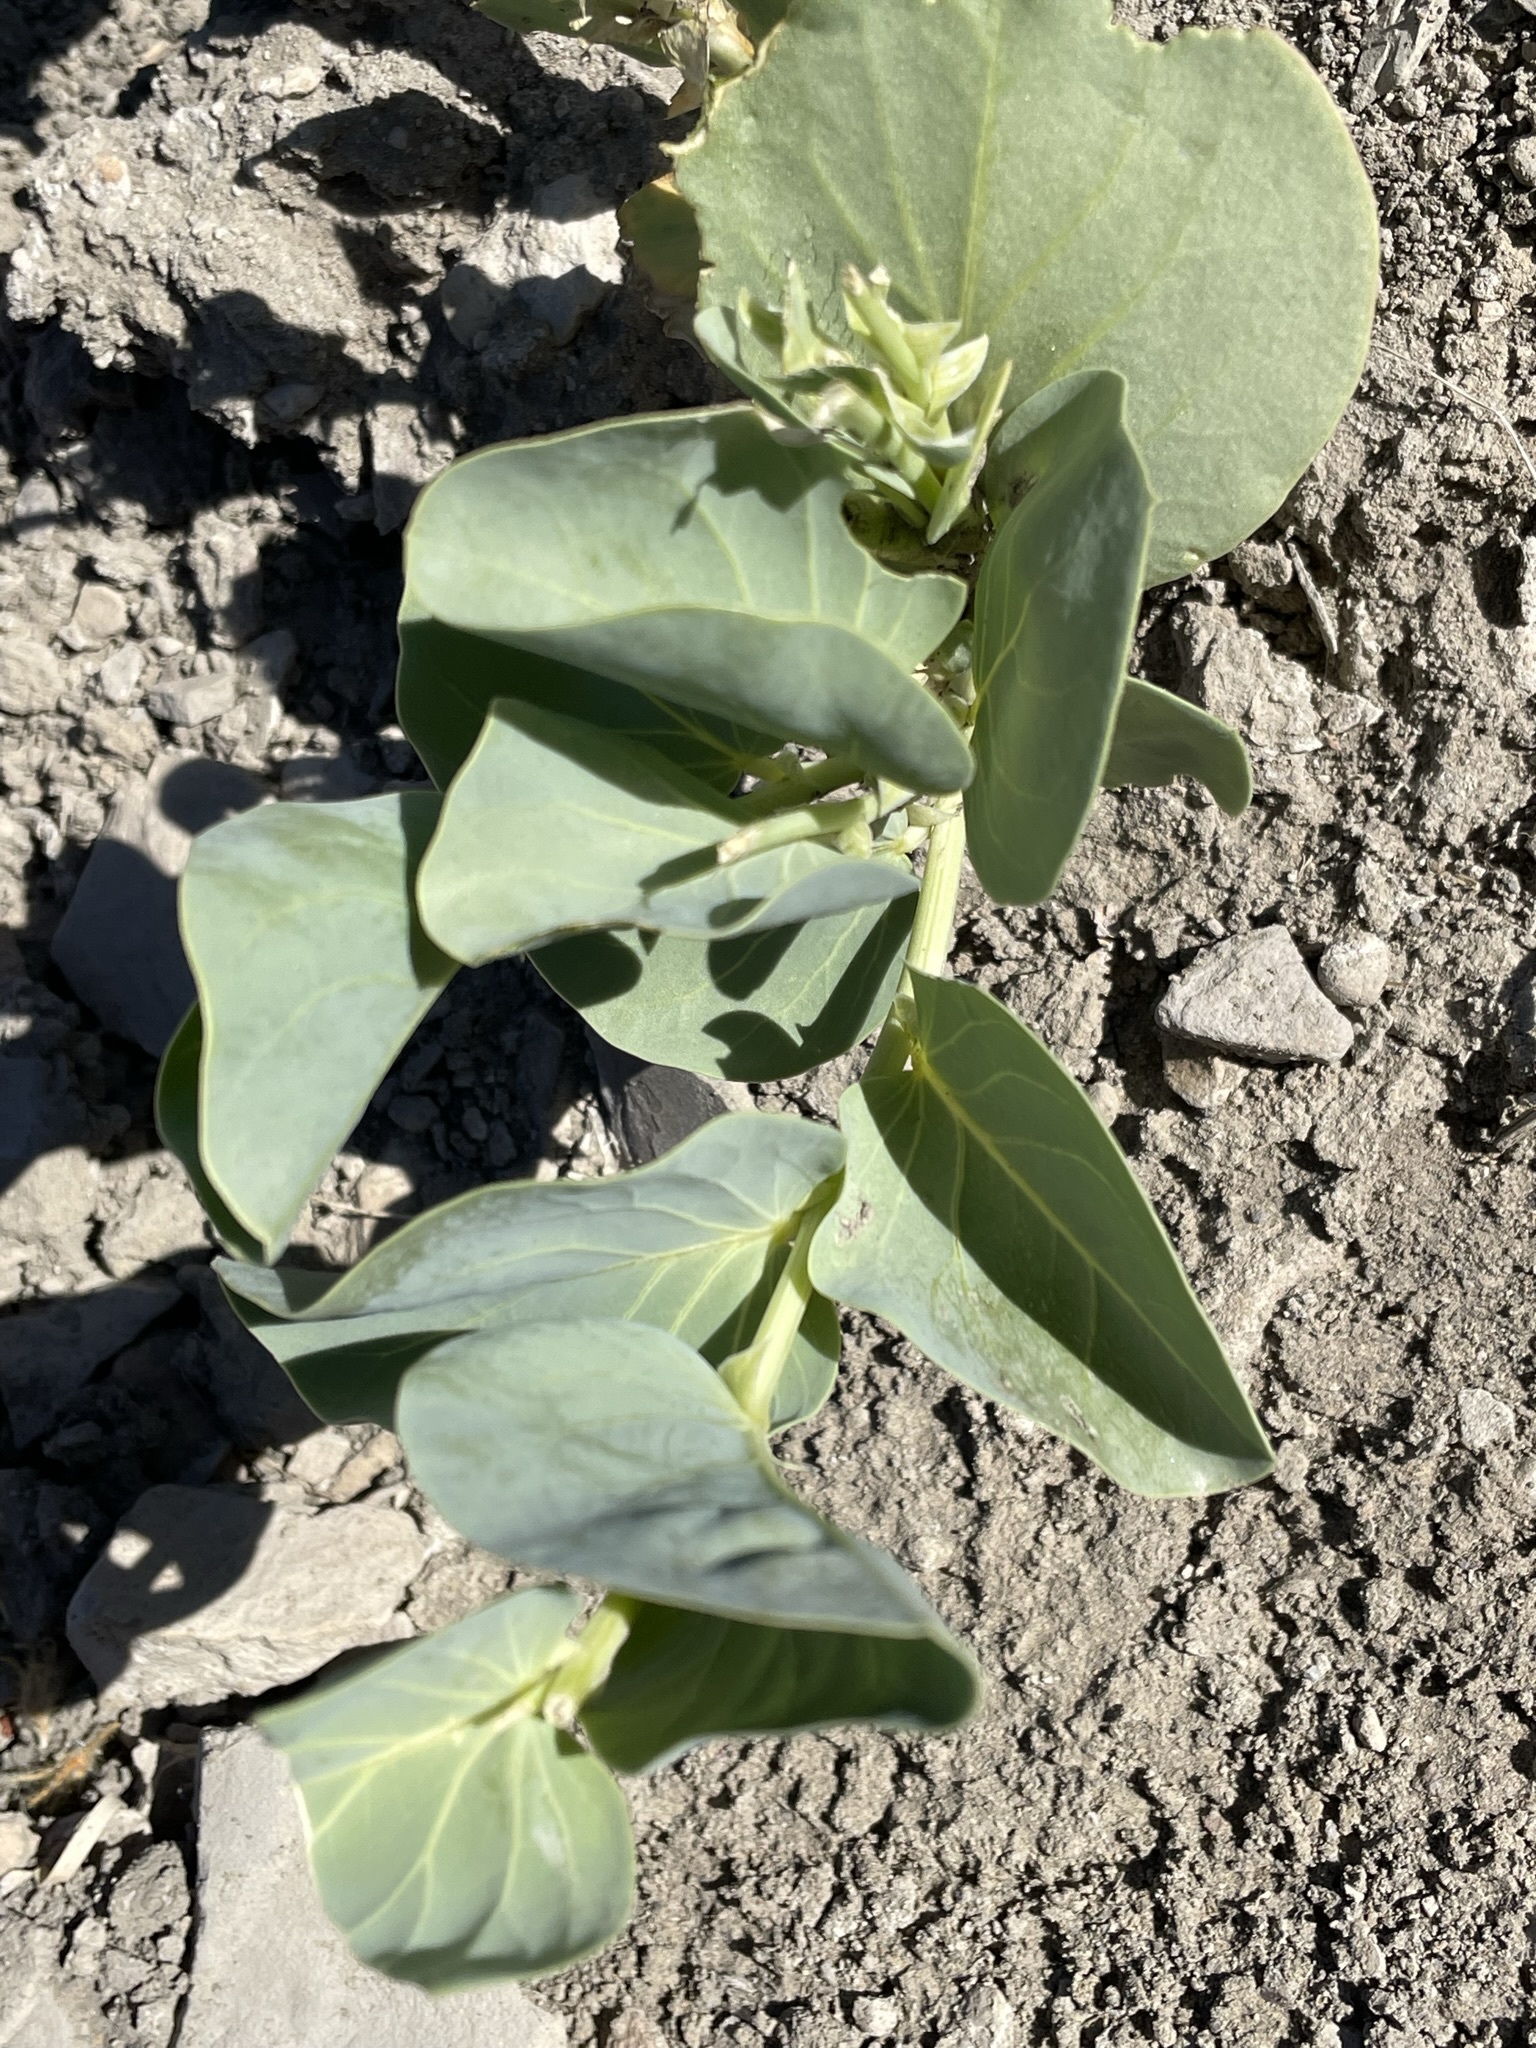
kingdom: Plantae
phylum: Tracheophyta
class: Magnoliopsida
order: Fabales
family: Fabaceae
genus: Astragalus
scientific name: Astragalus asclepiadoides
